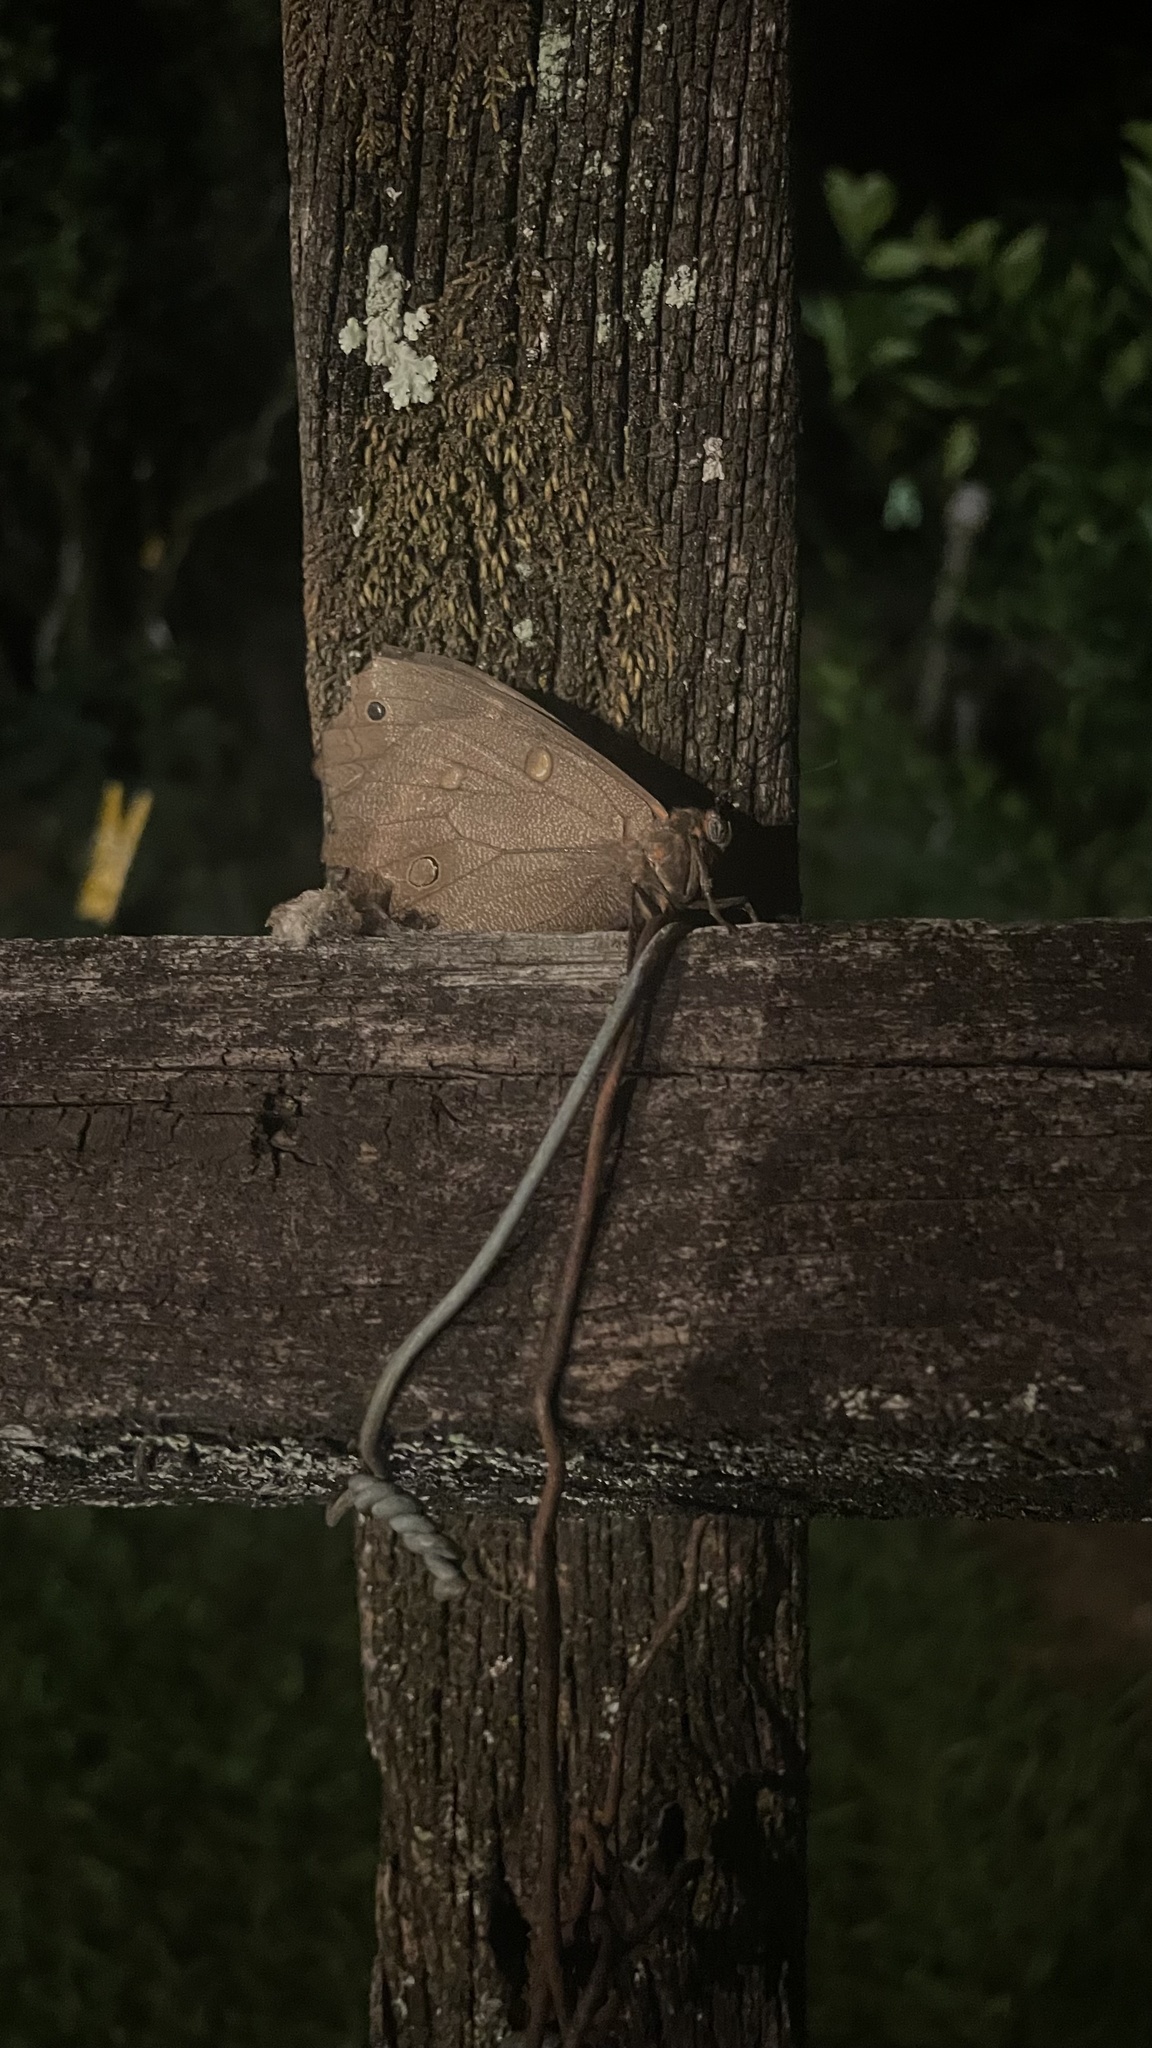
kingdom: Animalia
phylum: Arthropoda
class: Insecta
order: Lepidoptera
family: Nymphalidae
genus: Brassolis
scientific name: Brassolis sophorae
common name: Coconut caterpillar
